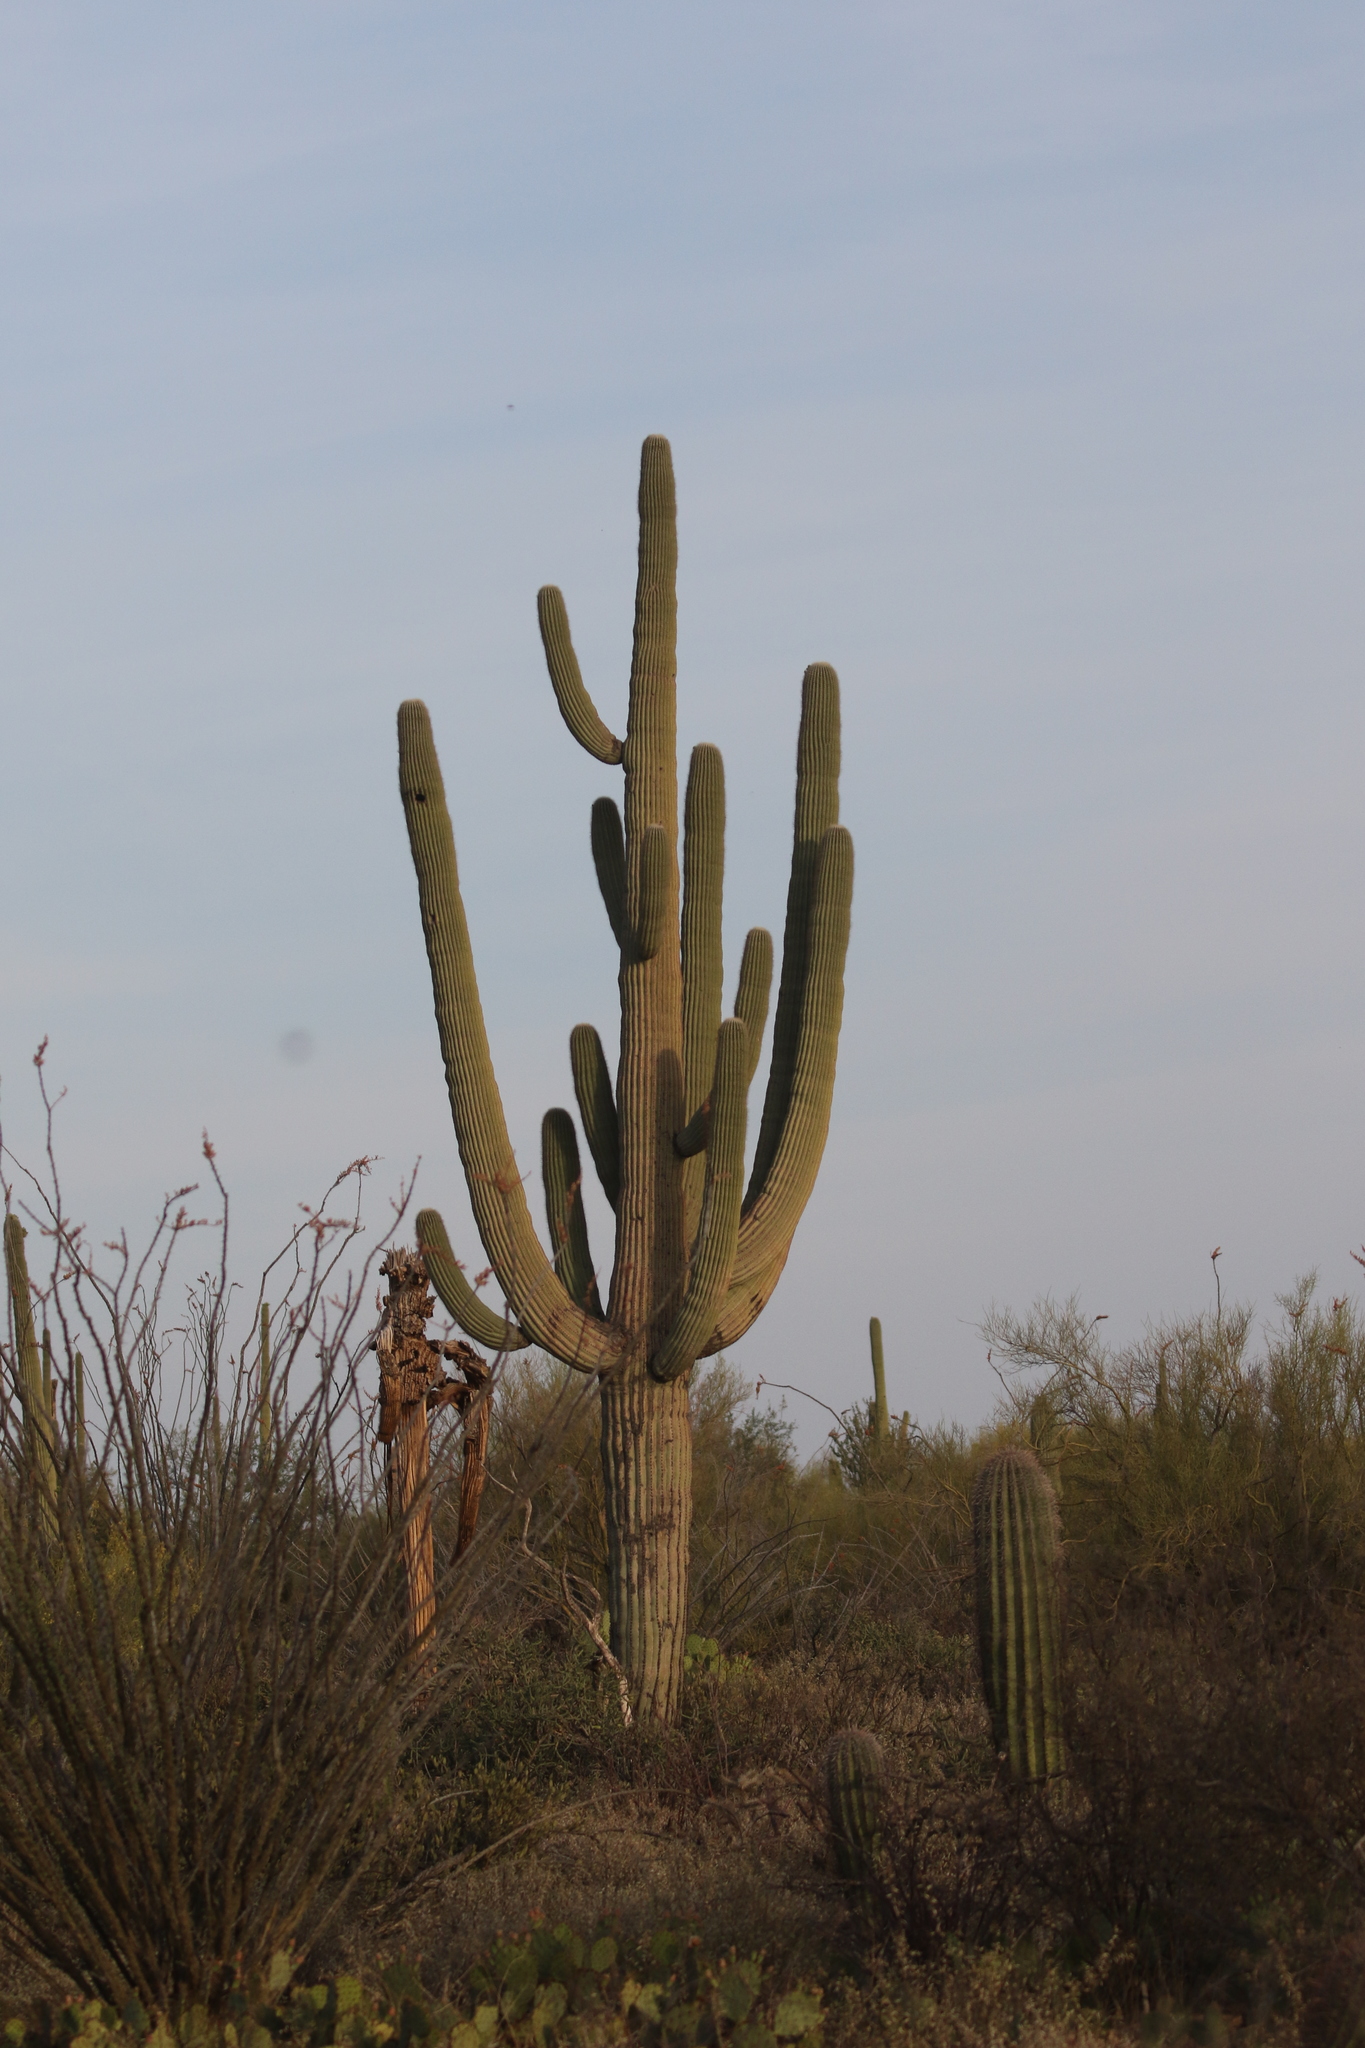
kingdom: Plantae
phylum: Tracheophyta
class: Magnoliopsida
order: Caryophyllales
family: Cactaceae
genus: Carnegiea
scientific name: Carnegiea gigantea
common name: Saguaro
